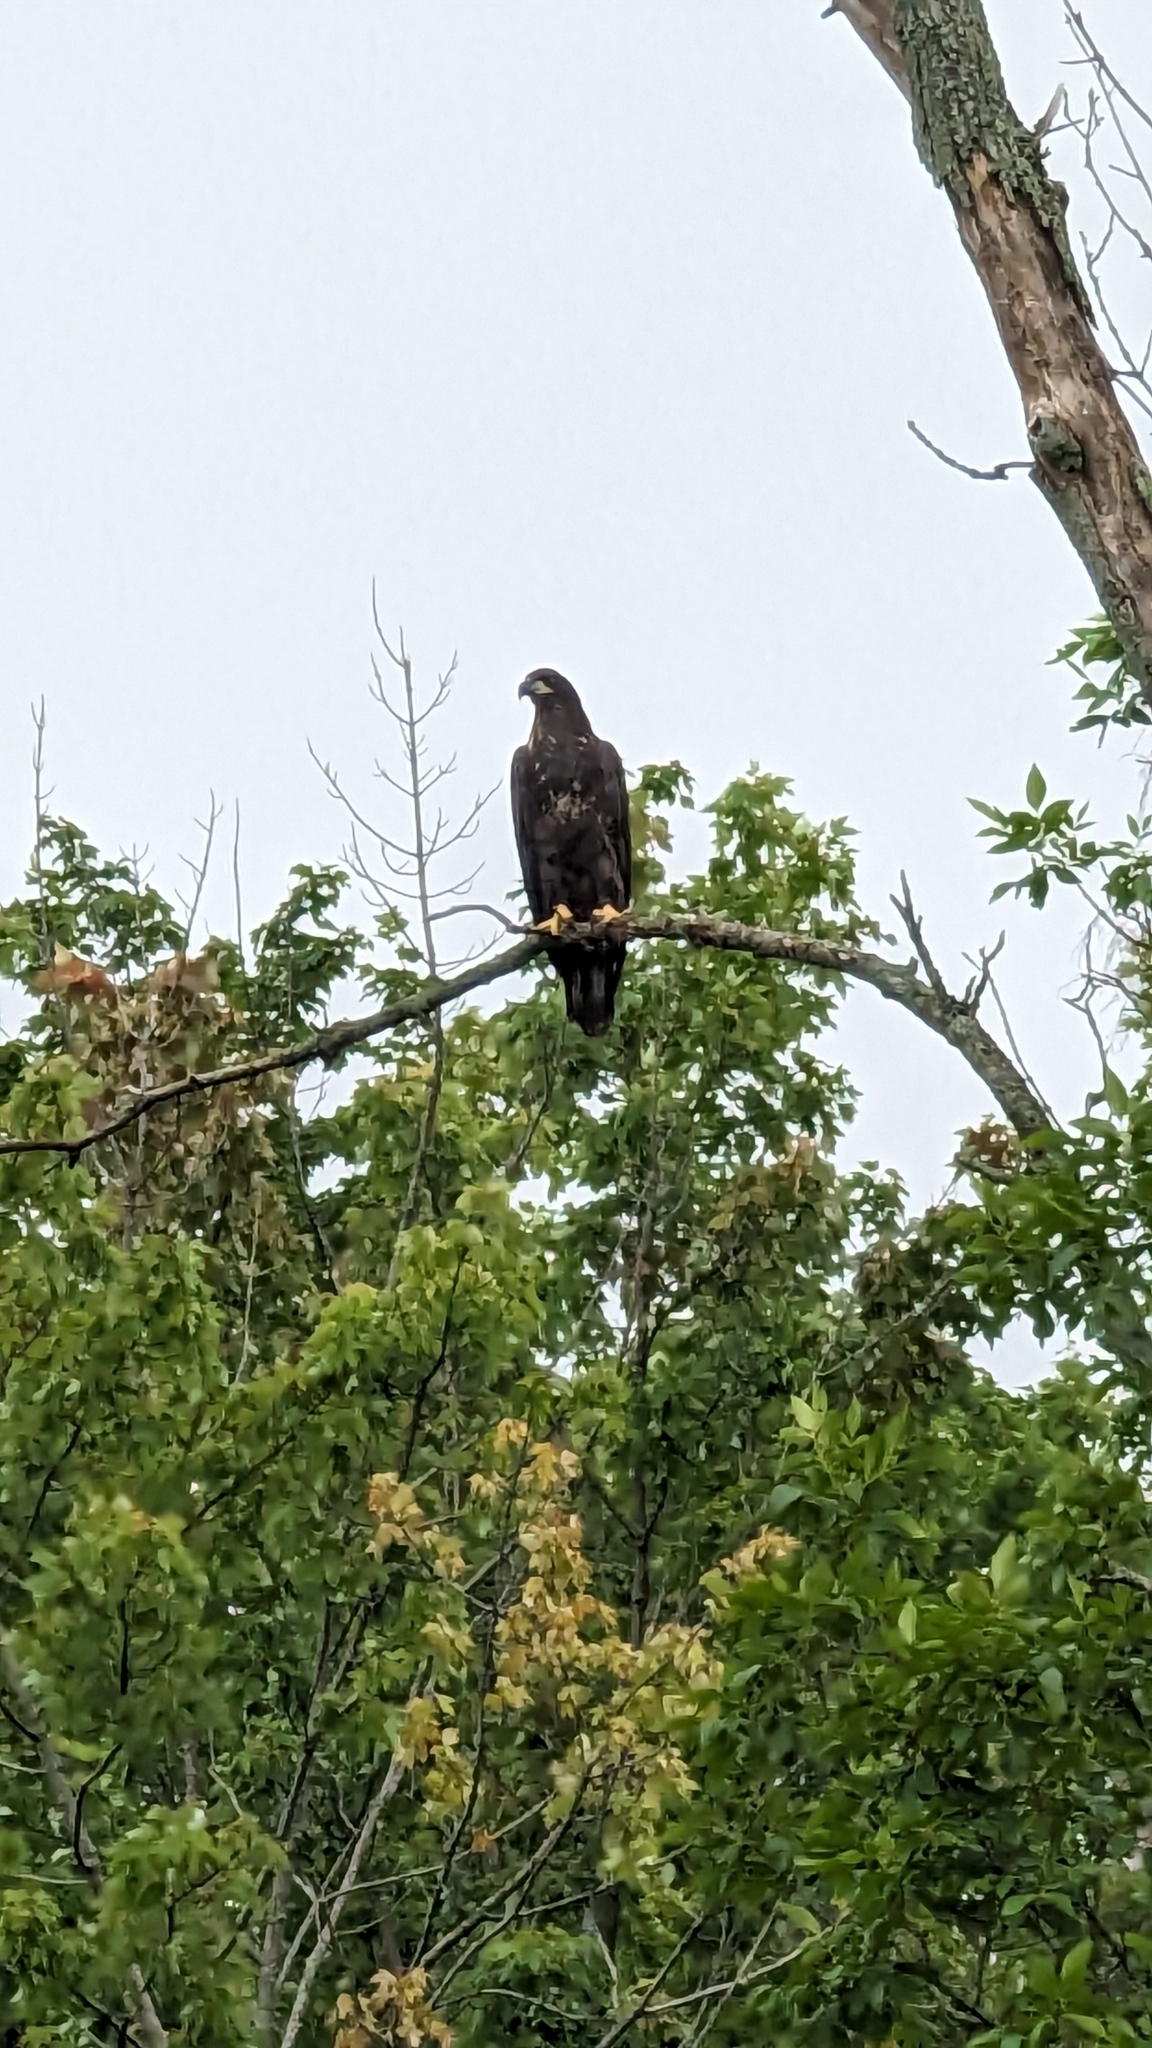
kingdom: Animalia
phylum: Chordata
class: Aves
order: Accipitriformes
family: Accipitridae
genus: Haliaeetus
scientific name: Haliaeetus leucocephalus
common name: Bald eagle
